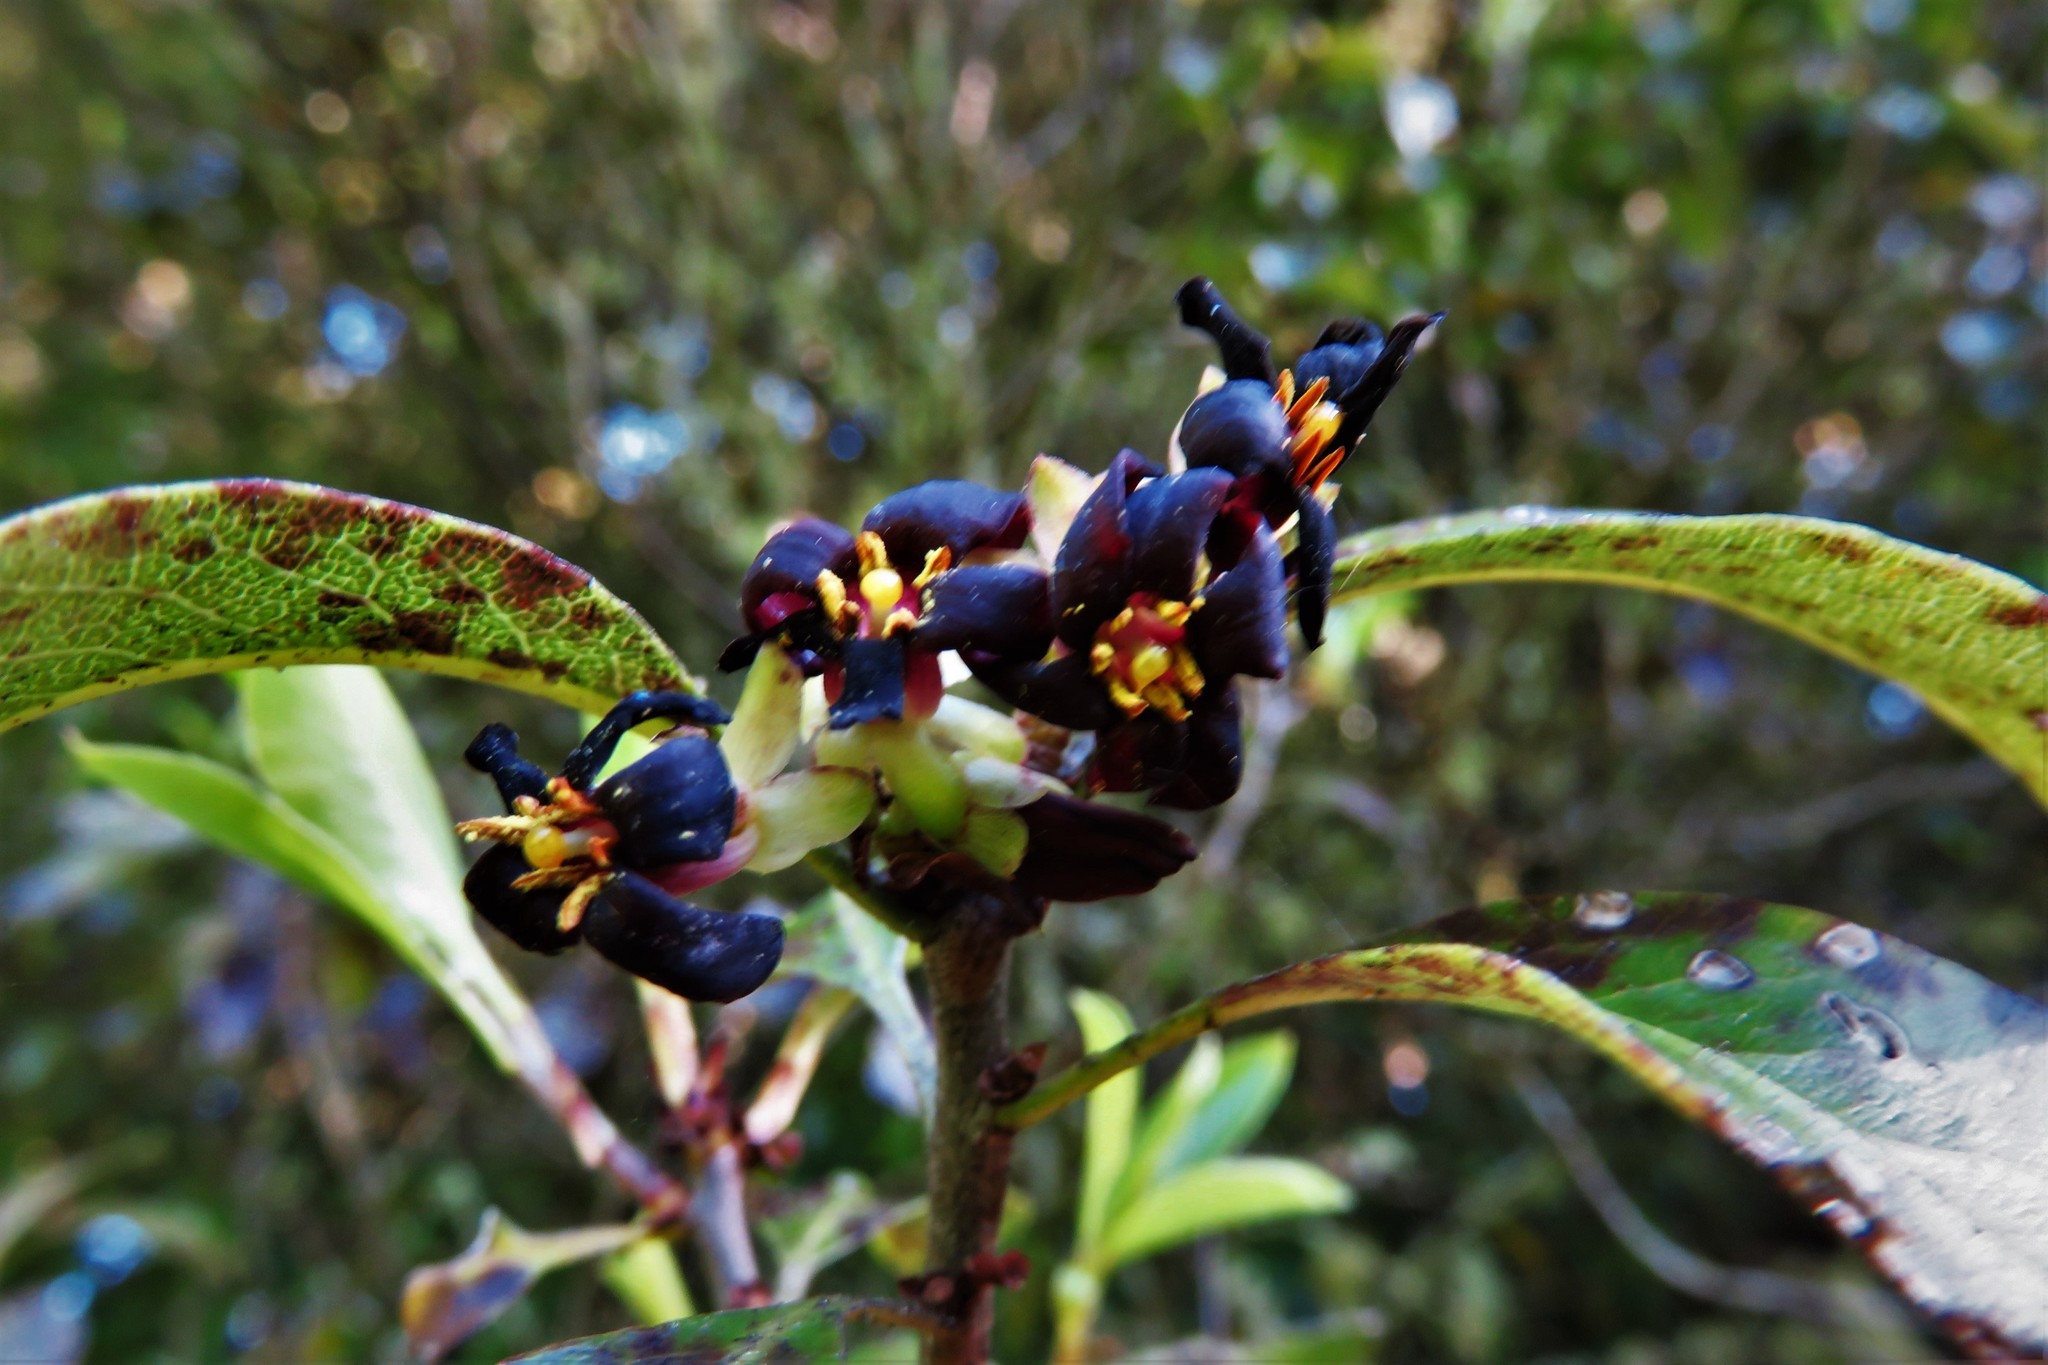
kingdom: Plantae
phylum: Tracheophyta
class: Magnoliopsida
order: Apiales
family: Pittosporaceae
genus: Pittosporum
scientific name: Pittosporum tenuifolium
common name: Kohuhu
